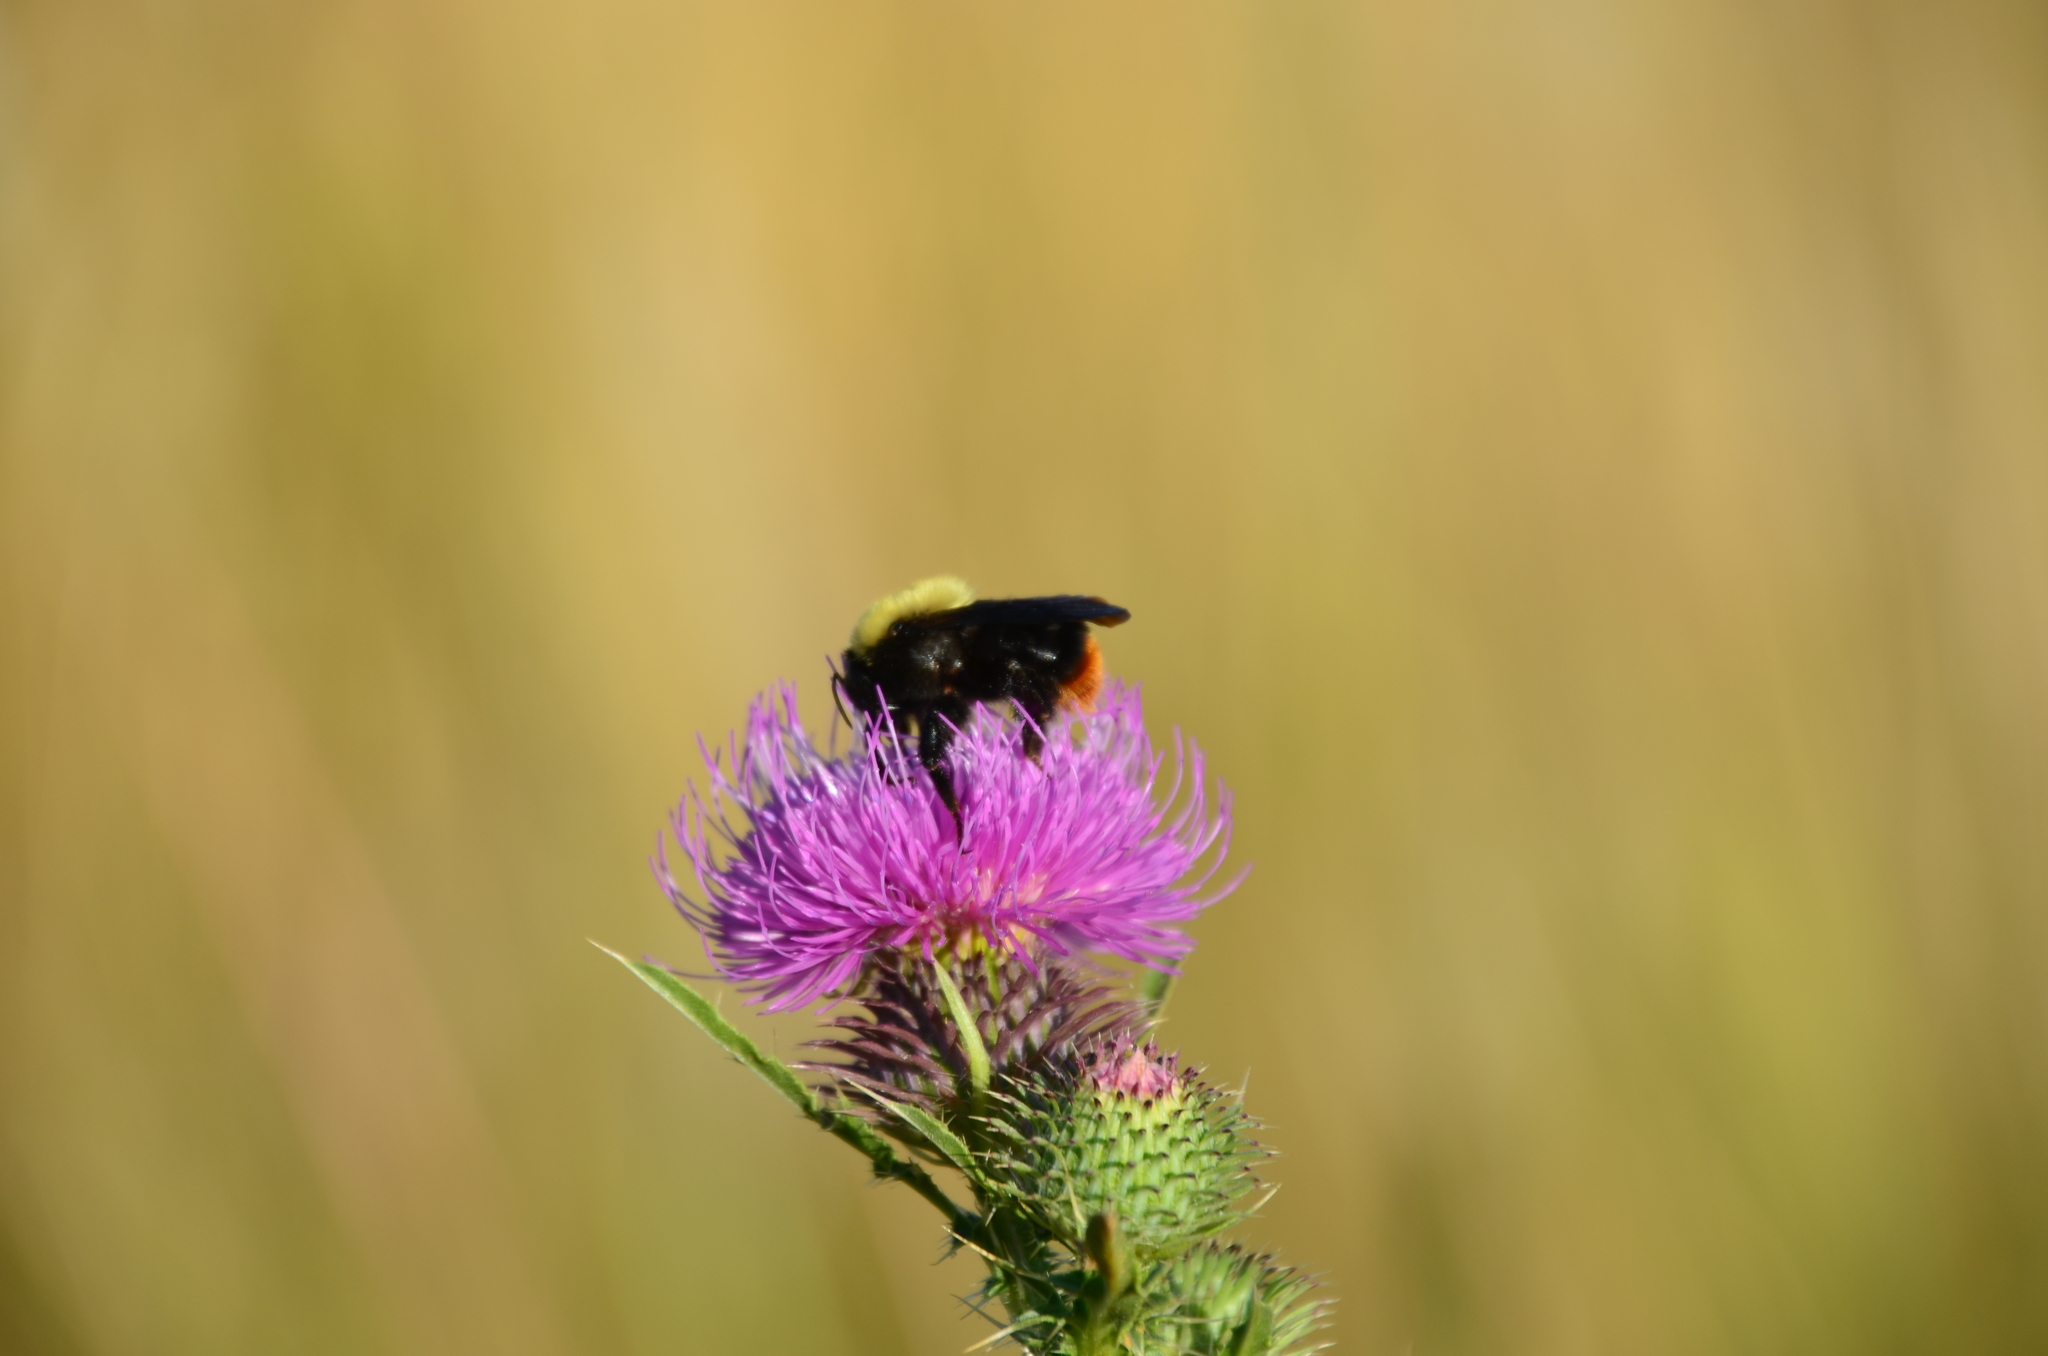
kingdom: Animalia
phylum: Arthropoda
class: Insecta
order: Hymenoptera
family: Apidae
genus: Bombus
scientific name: Bombus bellicosus
